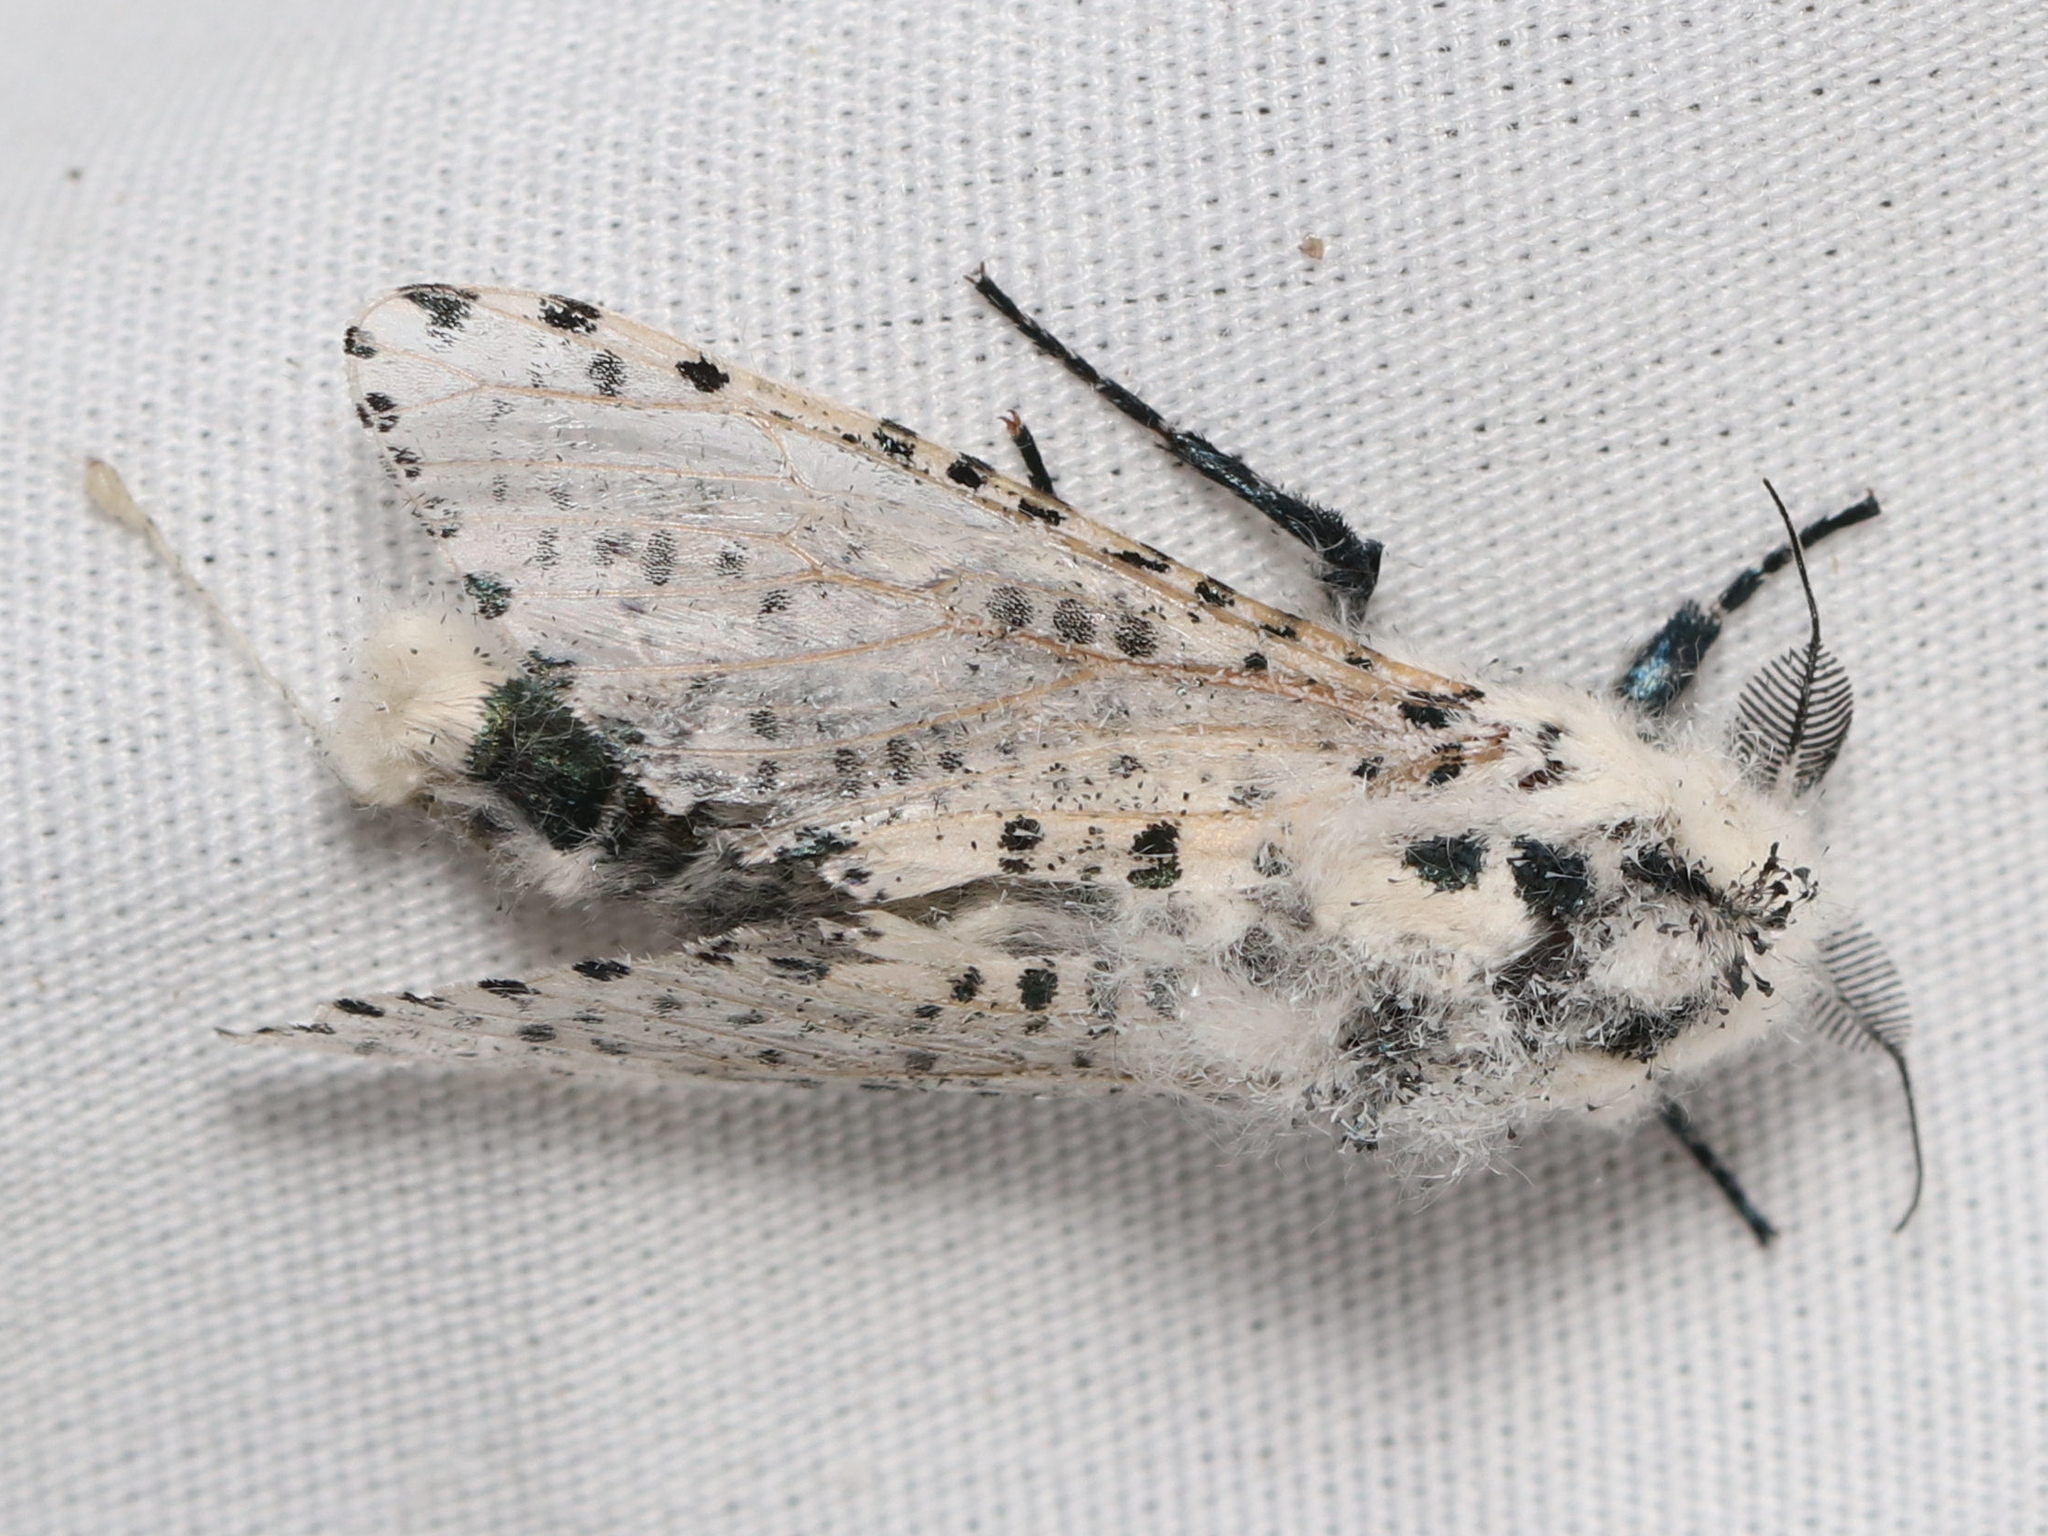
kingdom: Animalia
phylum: Arthropoda
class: Insecta
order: Lepidoptera
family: Cossidae
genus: Zeuzera
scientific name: Zeuzera pyrina
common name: Leopard moth
